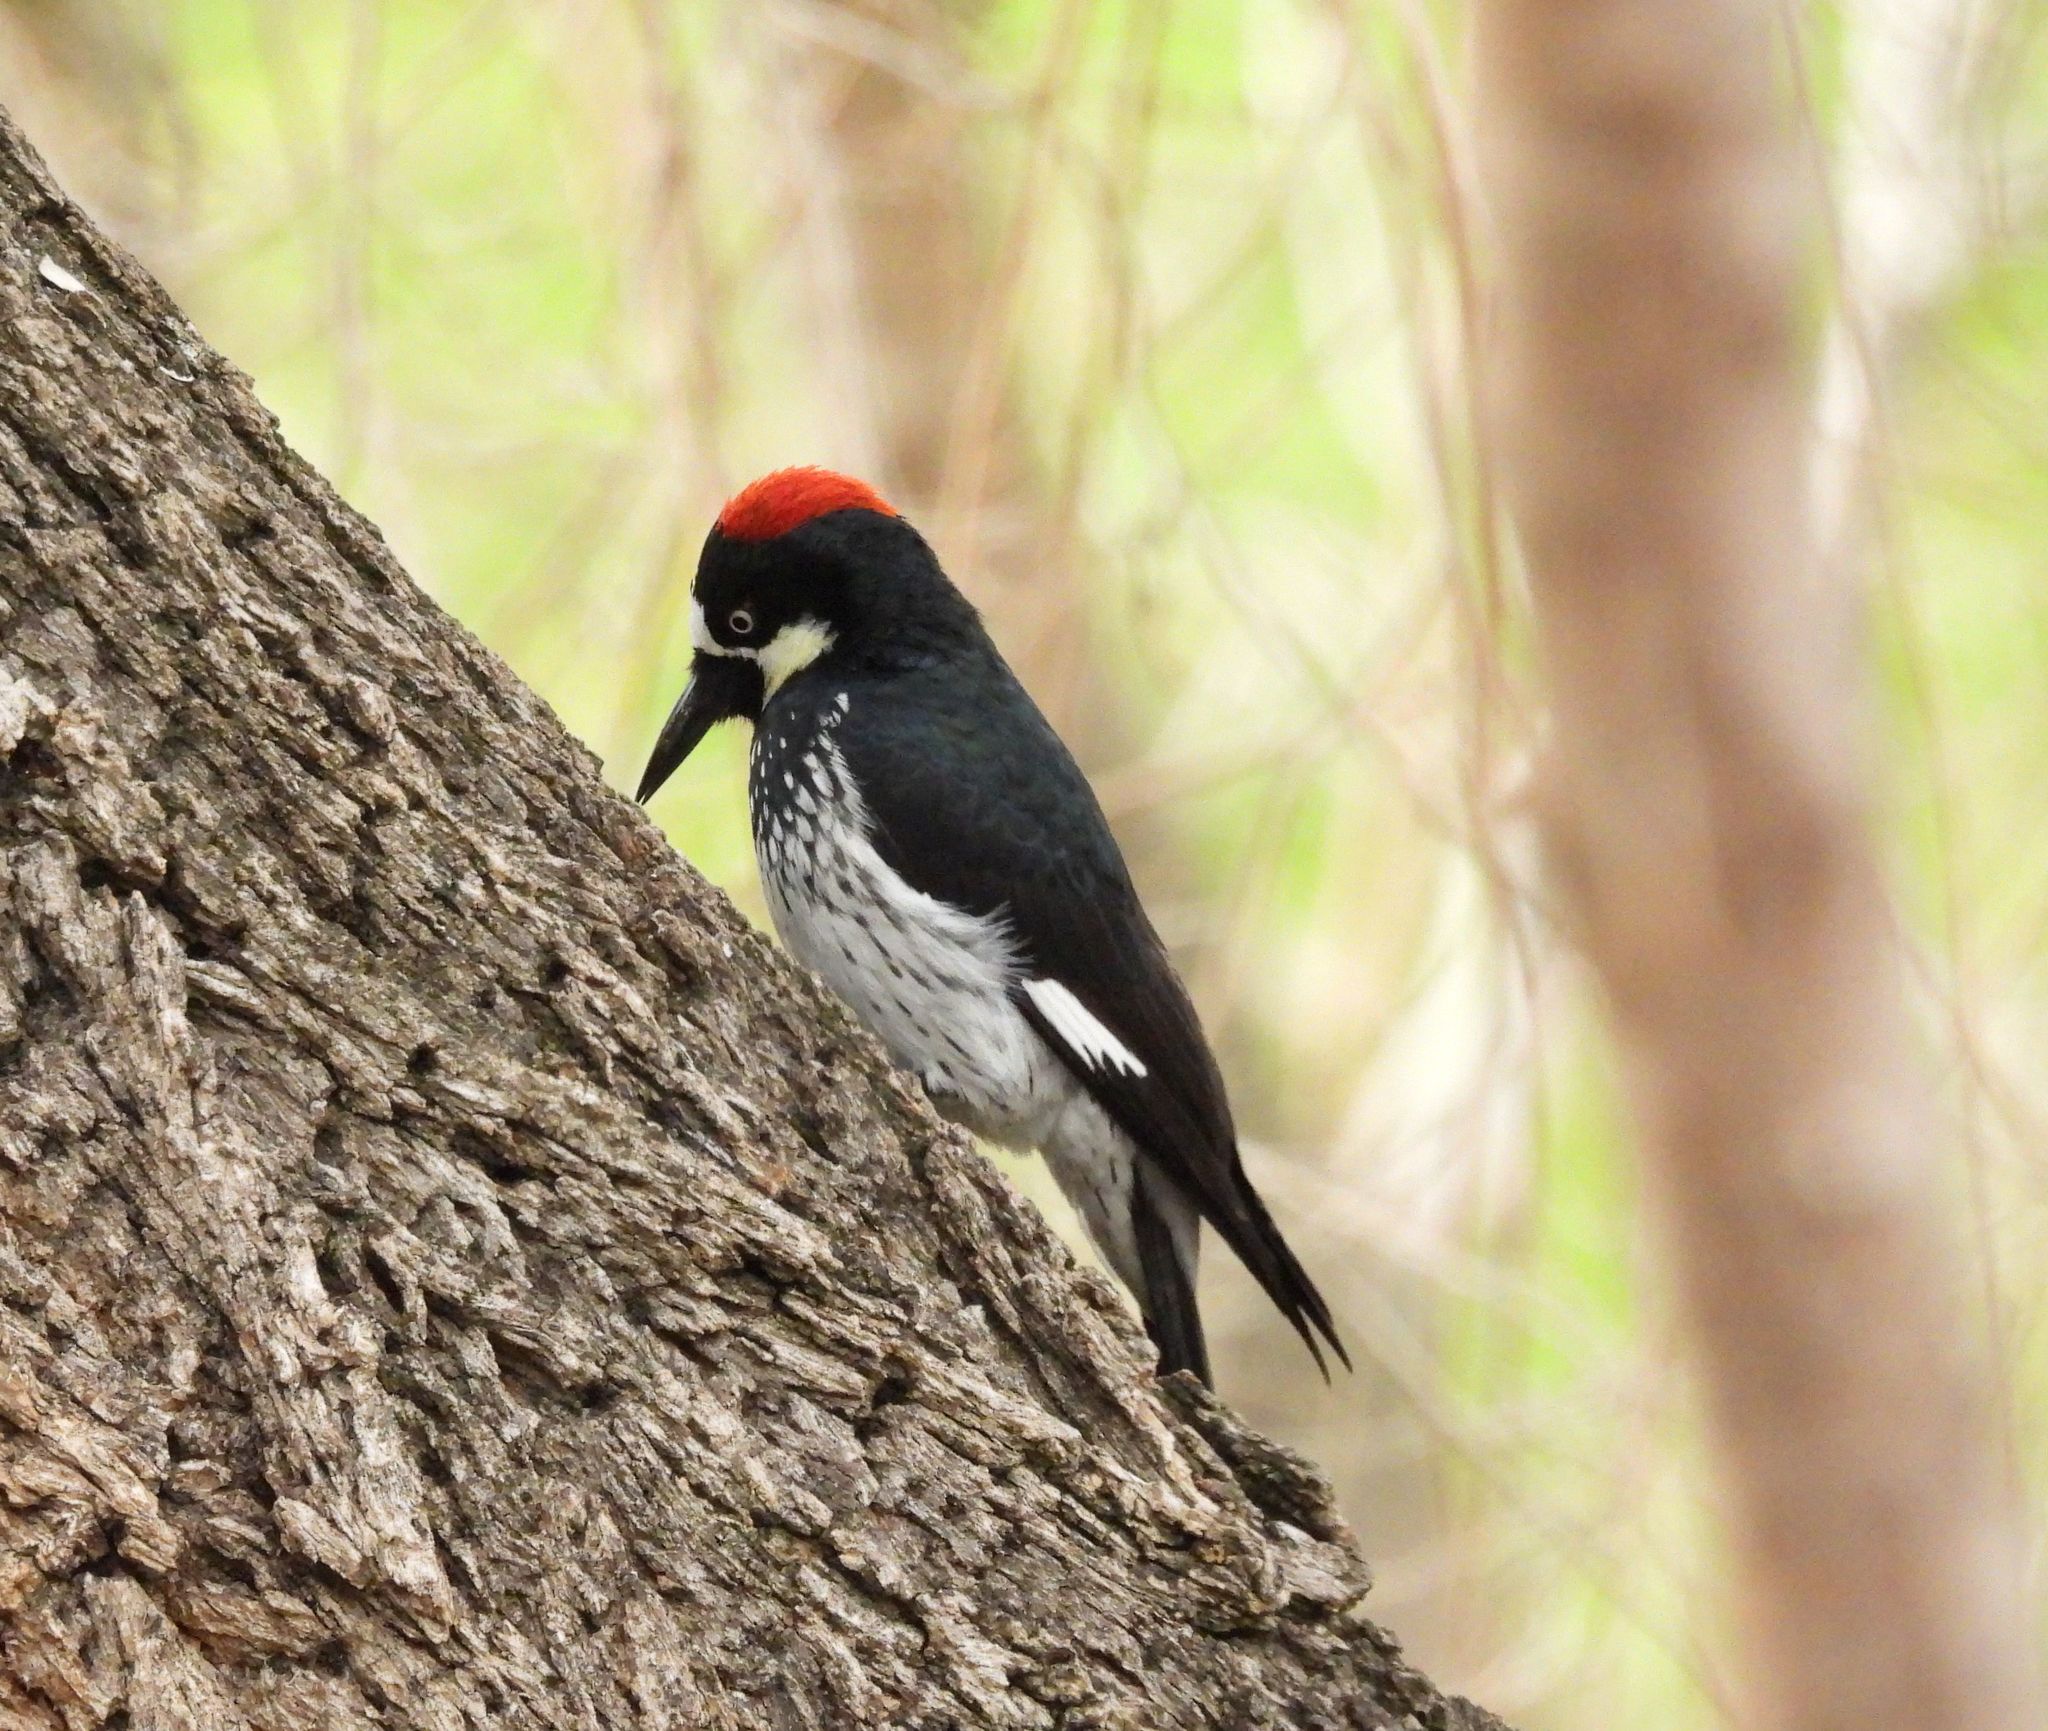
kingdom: Animalia
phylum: Chordata
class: Aves
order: Piciformes
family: Picidae
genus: Melanerpes
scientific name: Melanerpes formicivorus
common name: Acorn woodpecker
